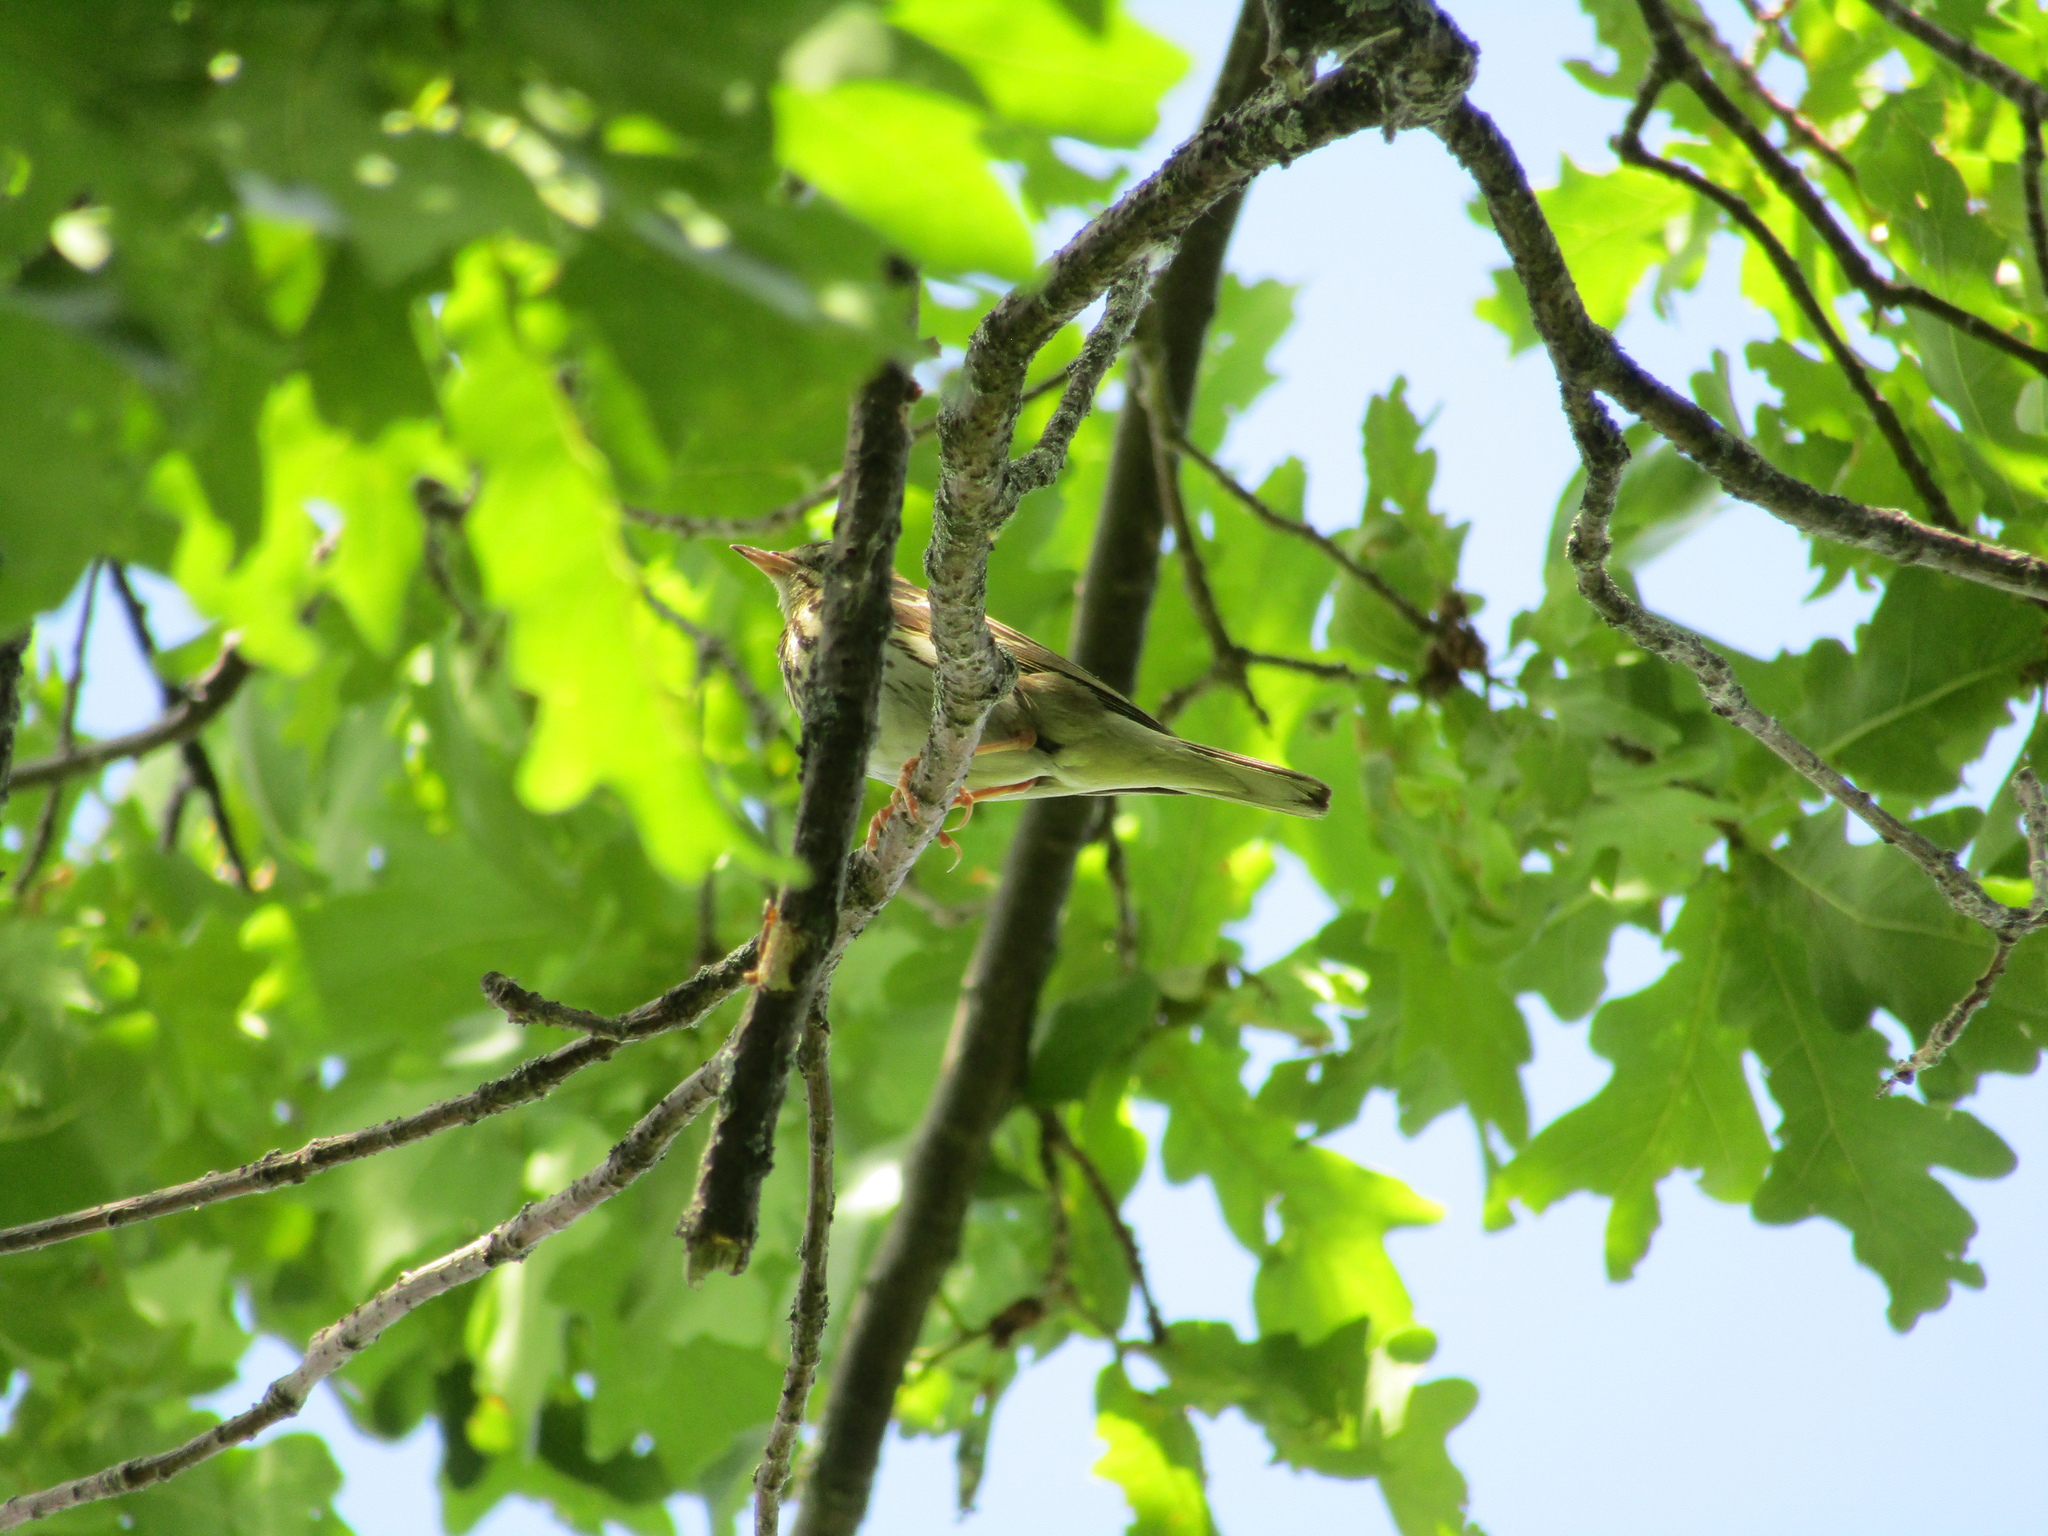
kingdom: Animalia
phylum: Chordata
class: Aves
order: Passeriformes
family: Motacillidae
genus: Anthus
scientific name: Anthus trivialis
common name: Tree pipit
